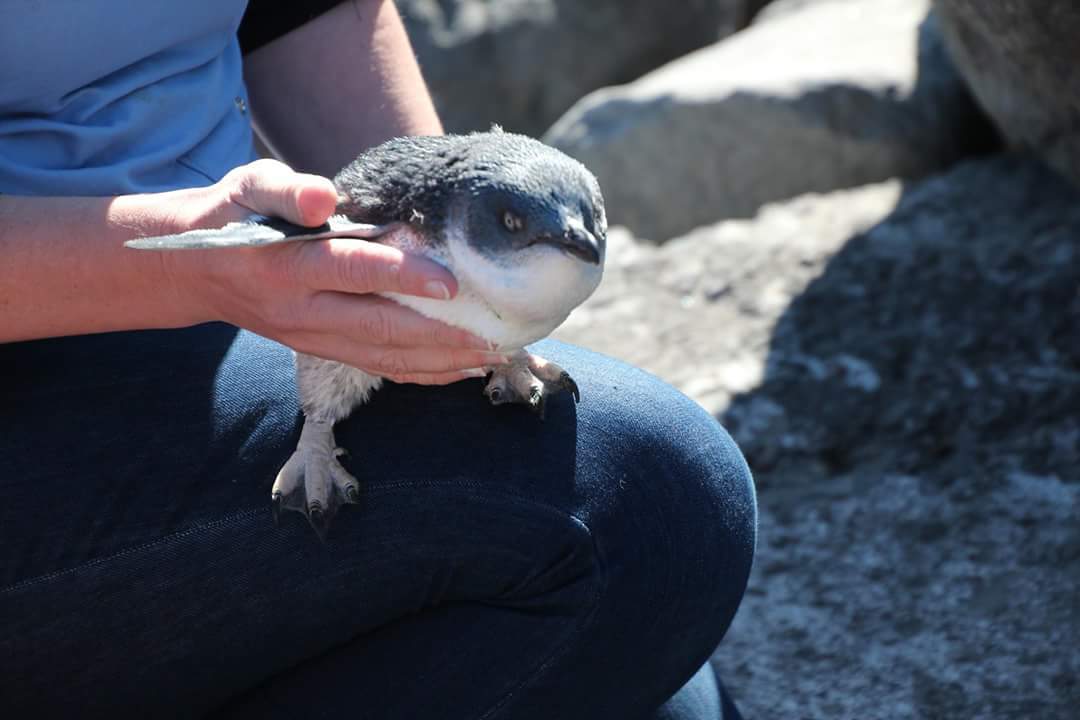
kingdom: Animalia
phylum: Chordata
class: Aves
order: Sphenisciformes
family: Spheniscidae
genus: Eudyptula
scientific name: Eudyptula minor
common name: Little penguin
